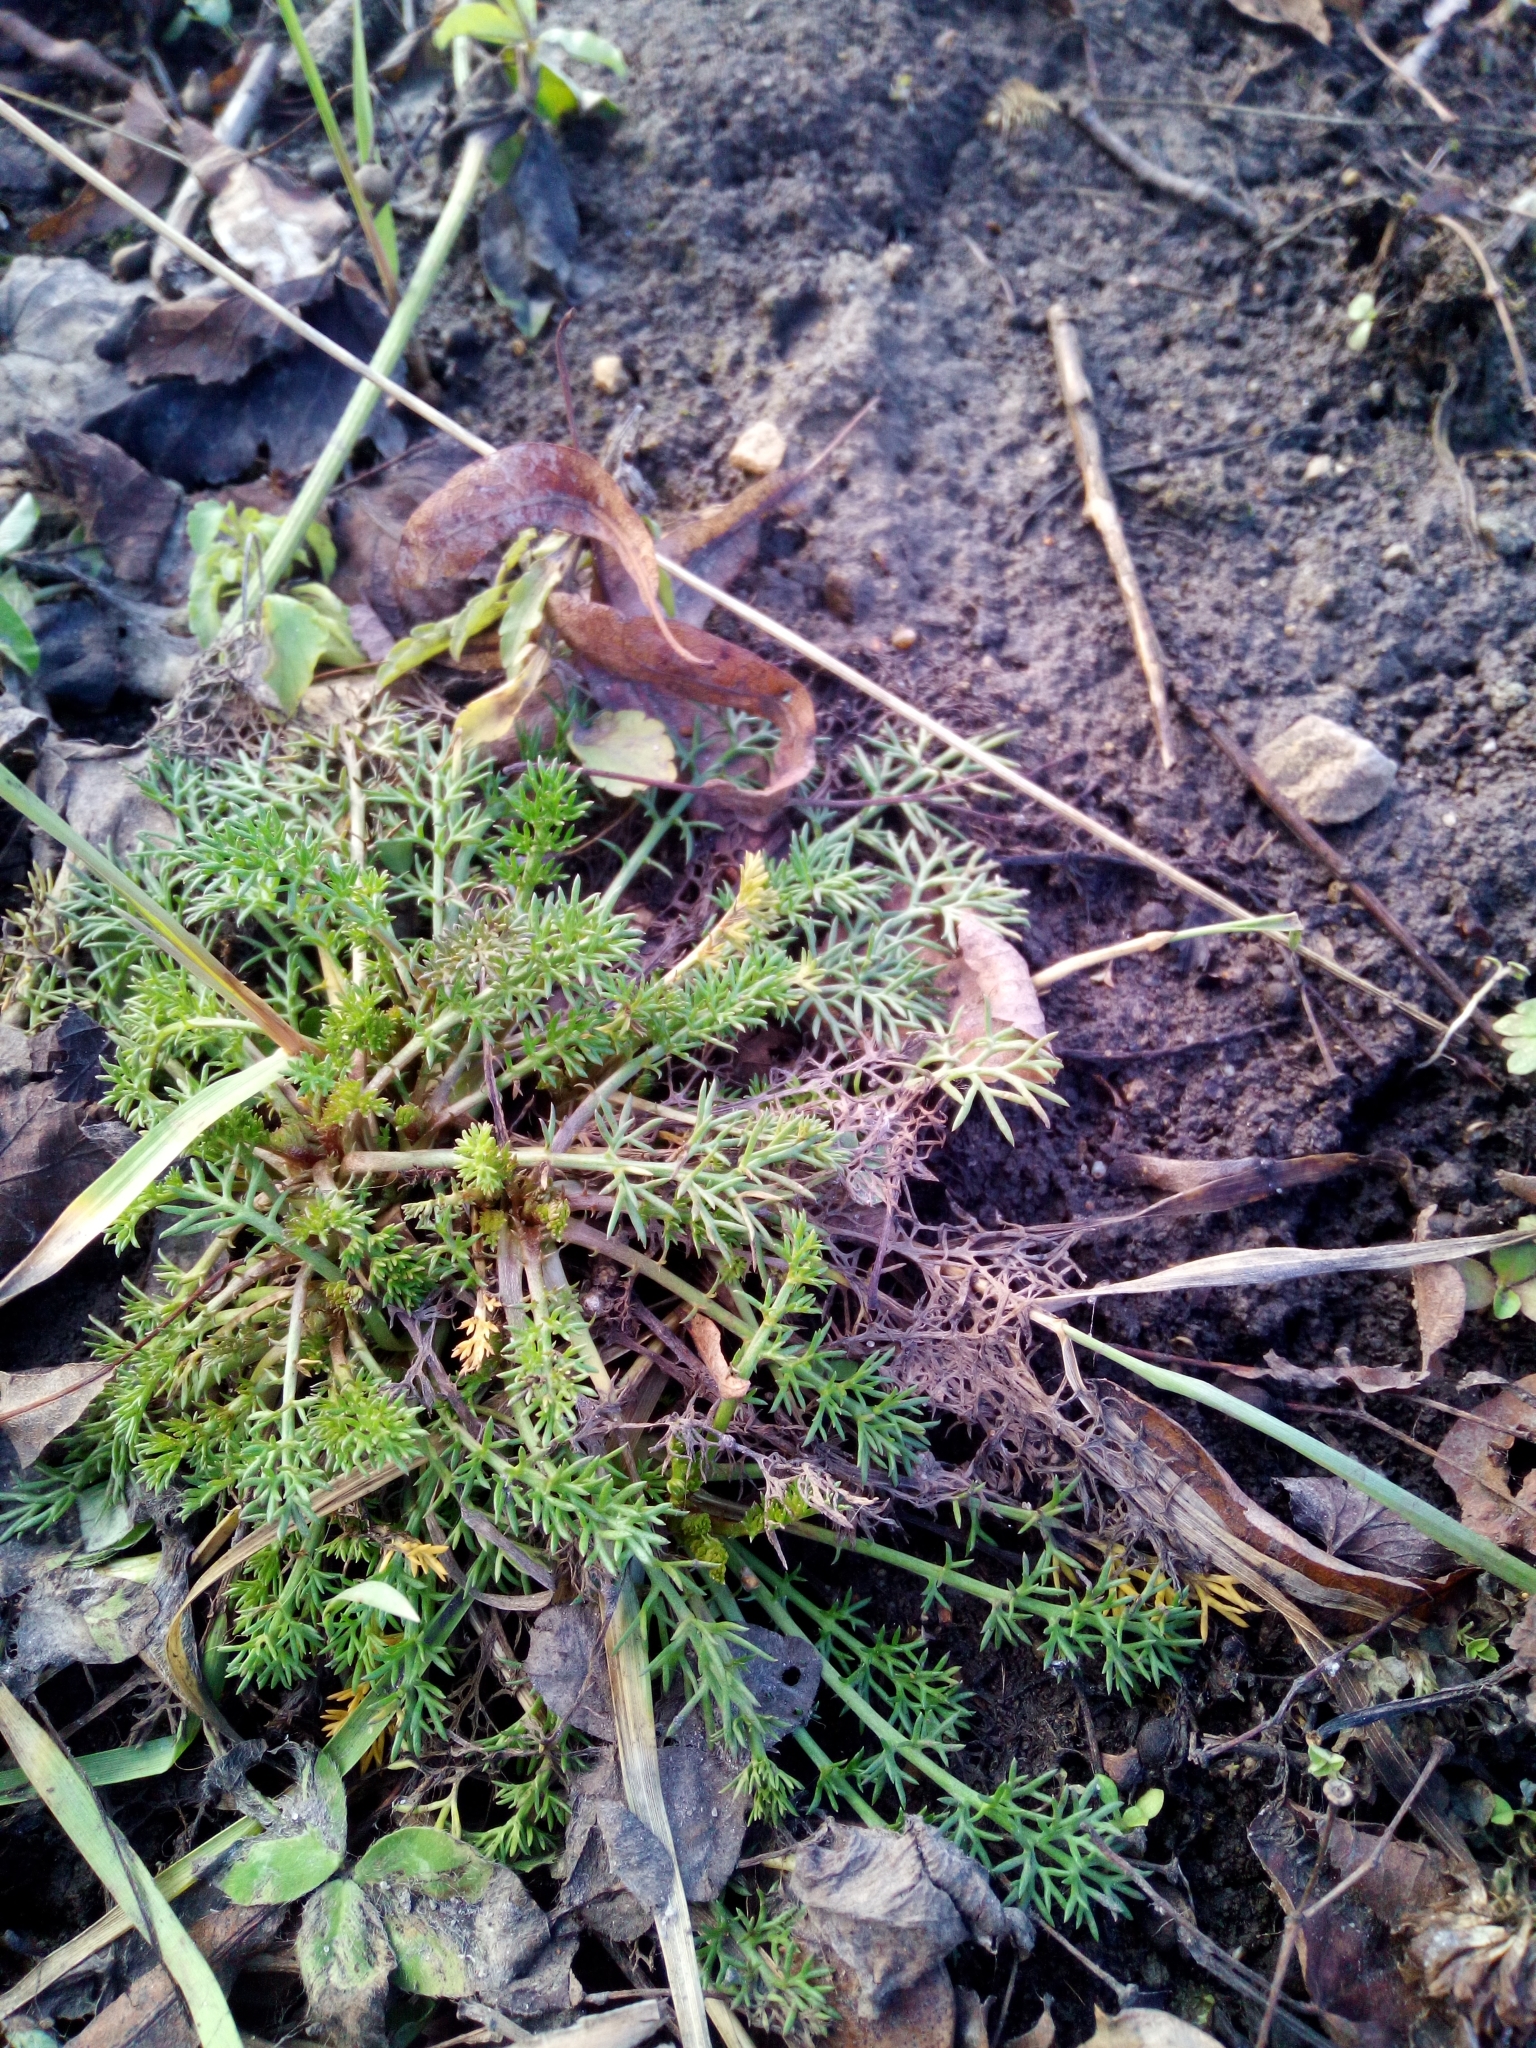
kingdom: Plantae
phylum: Tracheophyta
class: Magnoliopsida
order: Asterales
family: Asteraceae
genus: Tripleurospermum
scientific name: Tripleurospermum inodorum
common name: Scentless mayweed
